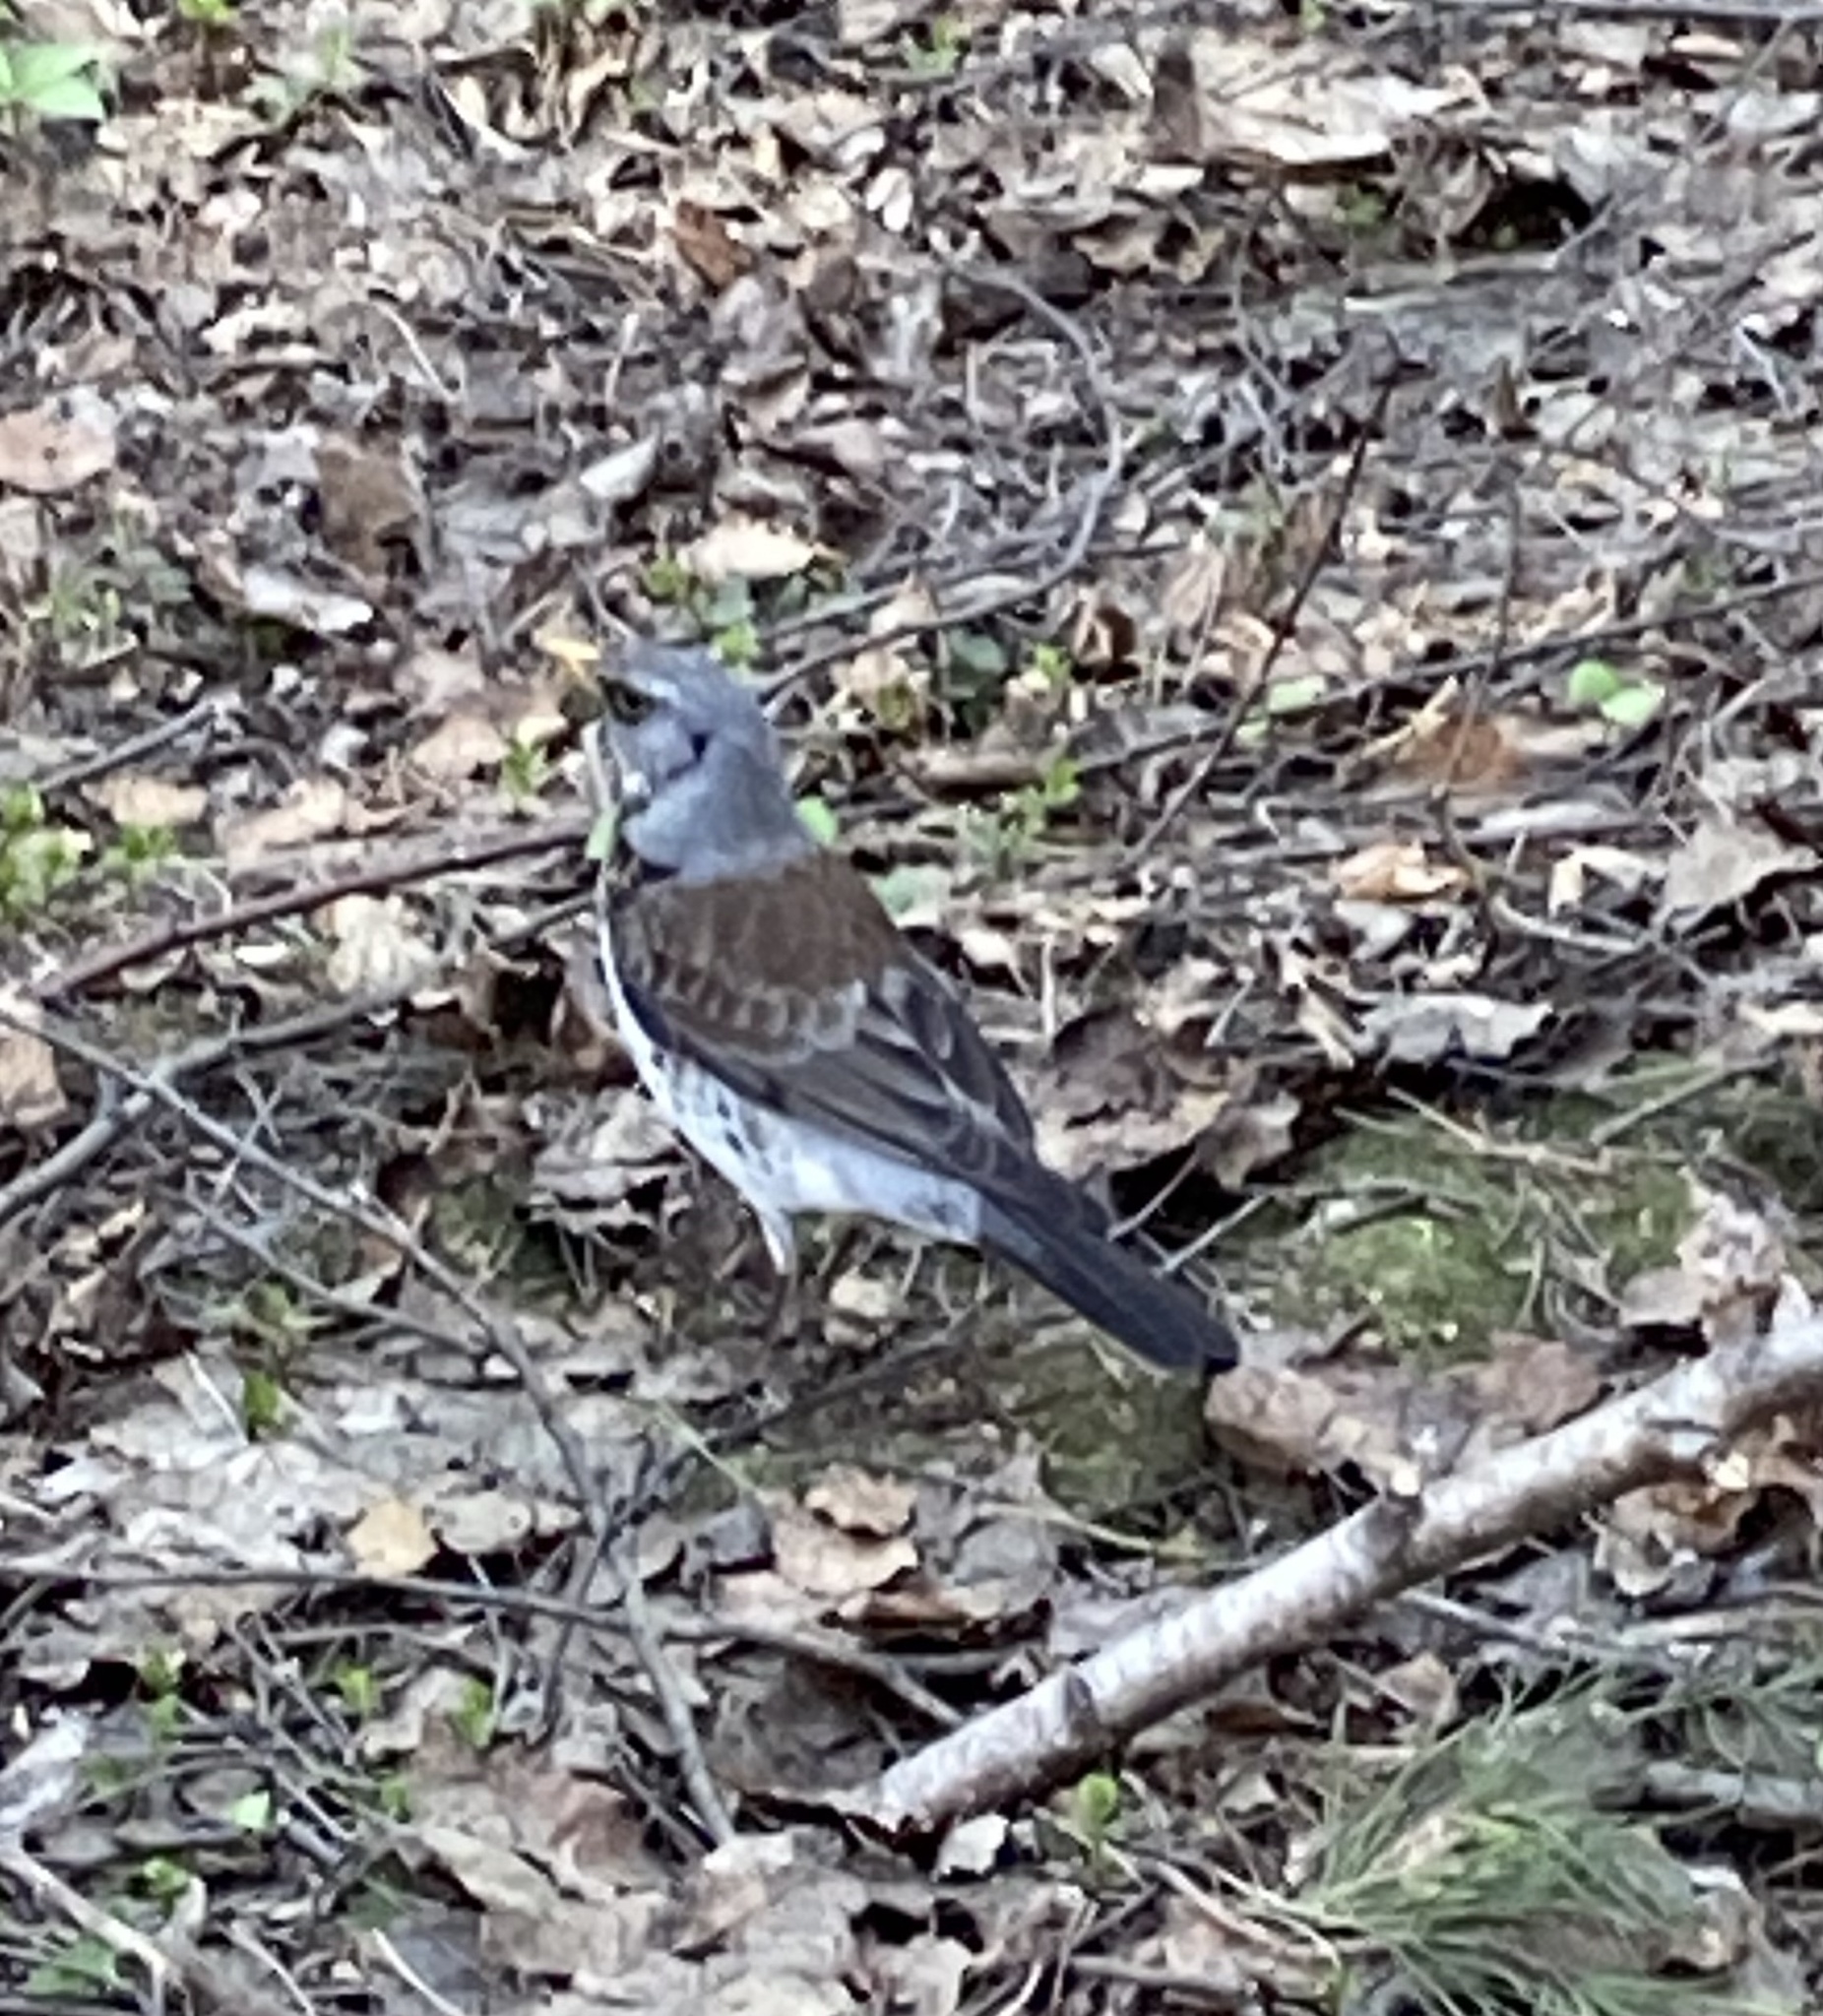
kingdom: Animalia
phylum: Chordata
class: Aves
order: Passeriformes
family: Turdidae
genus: Turdus
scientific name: Turdus pilaris
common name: Fieldfare
